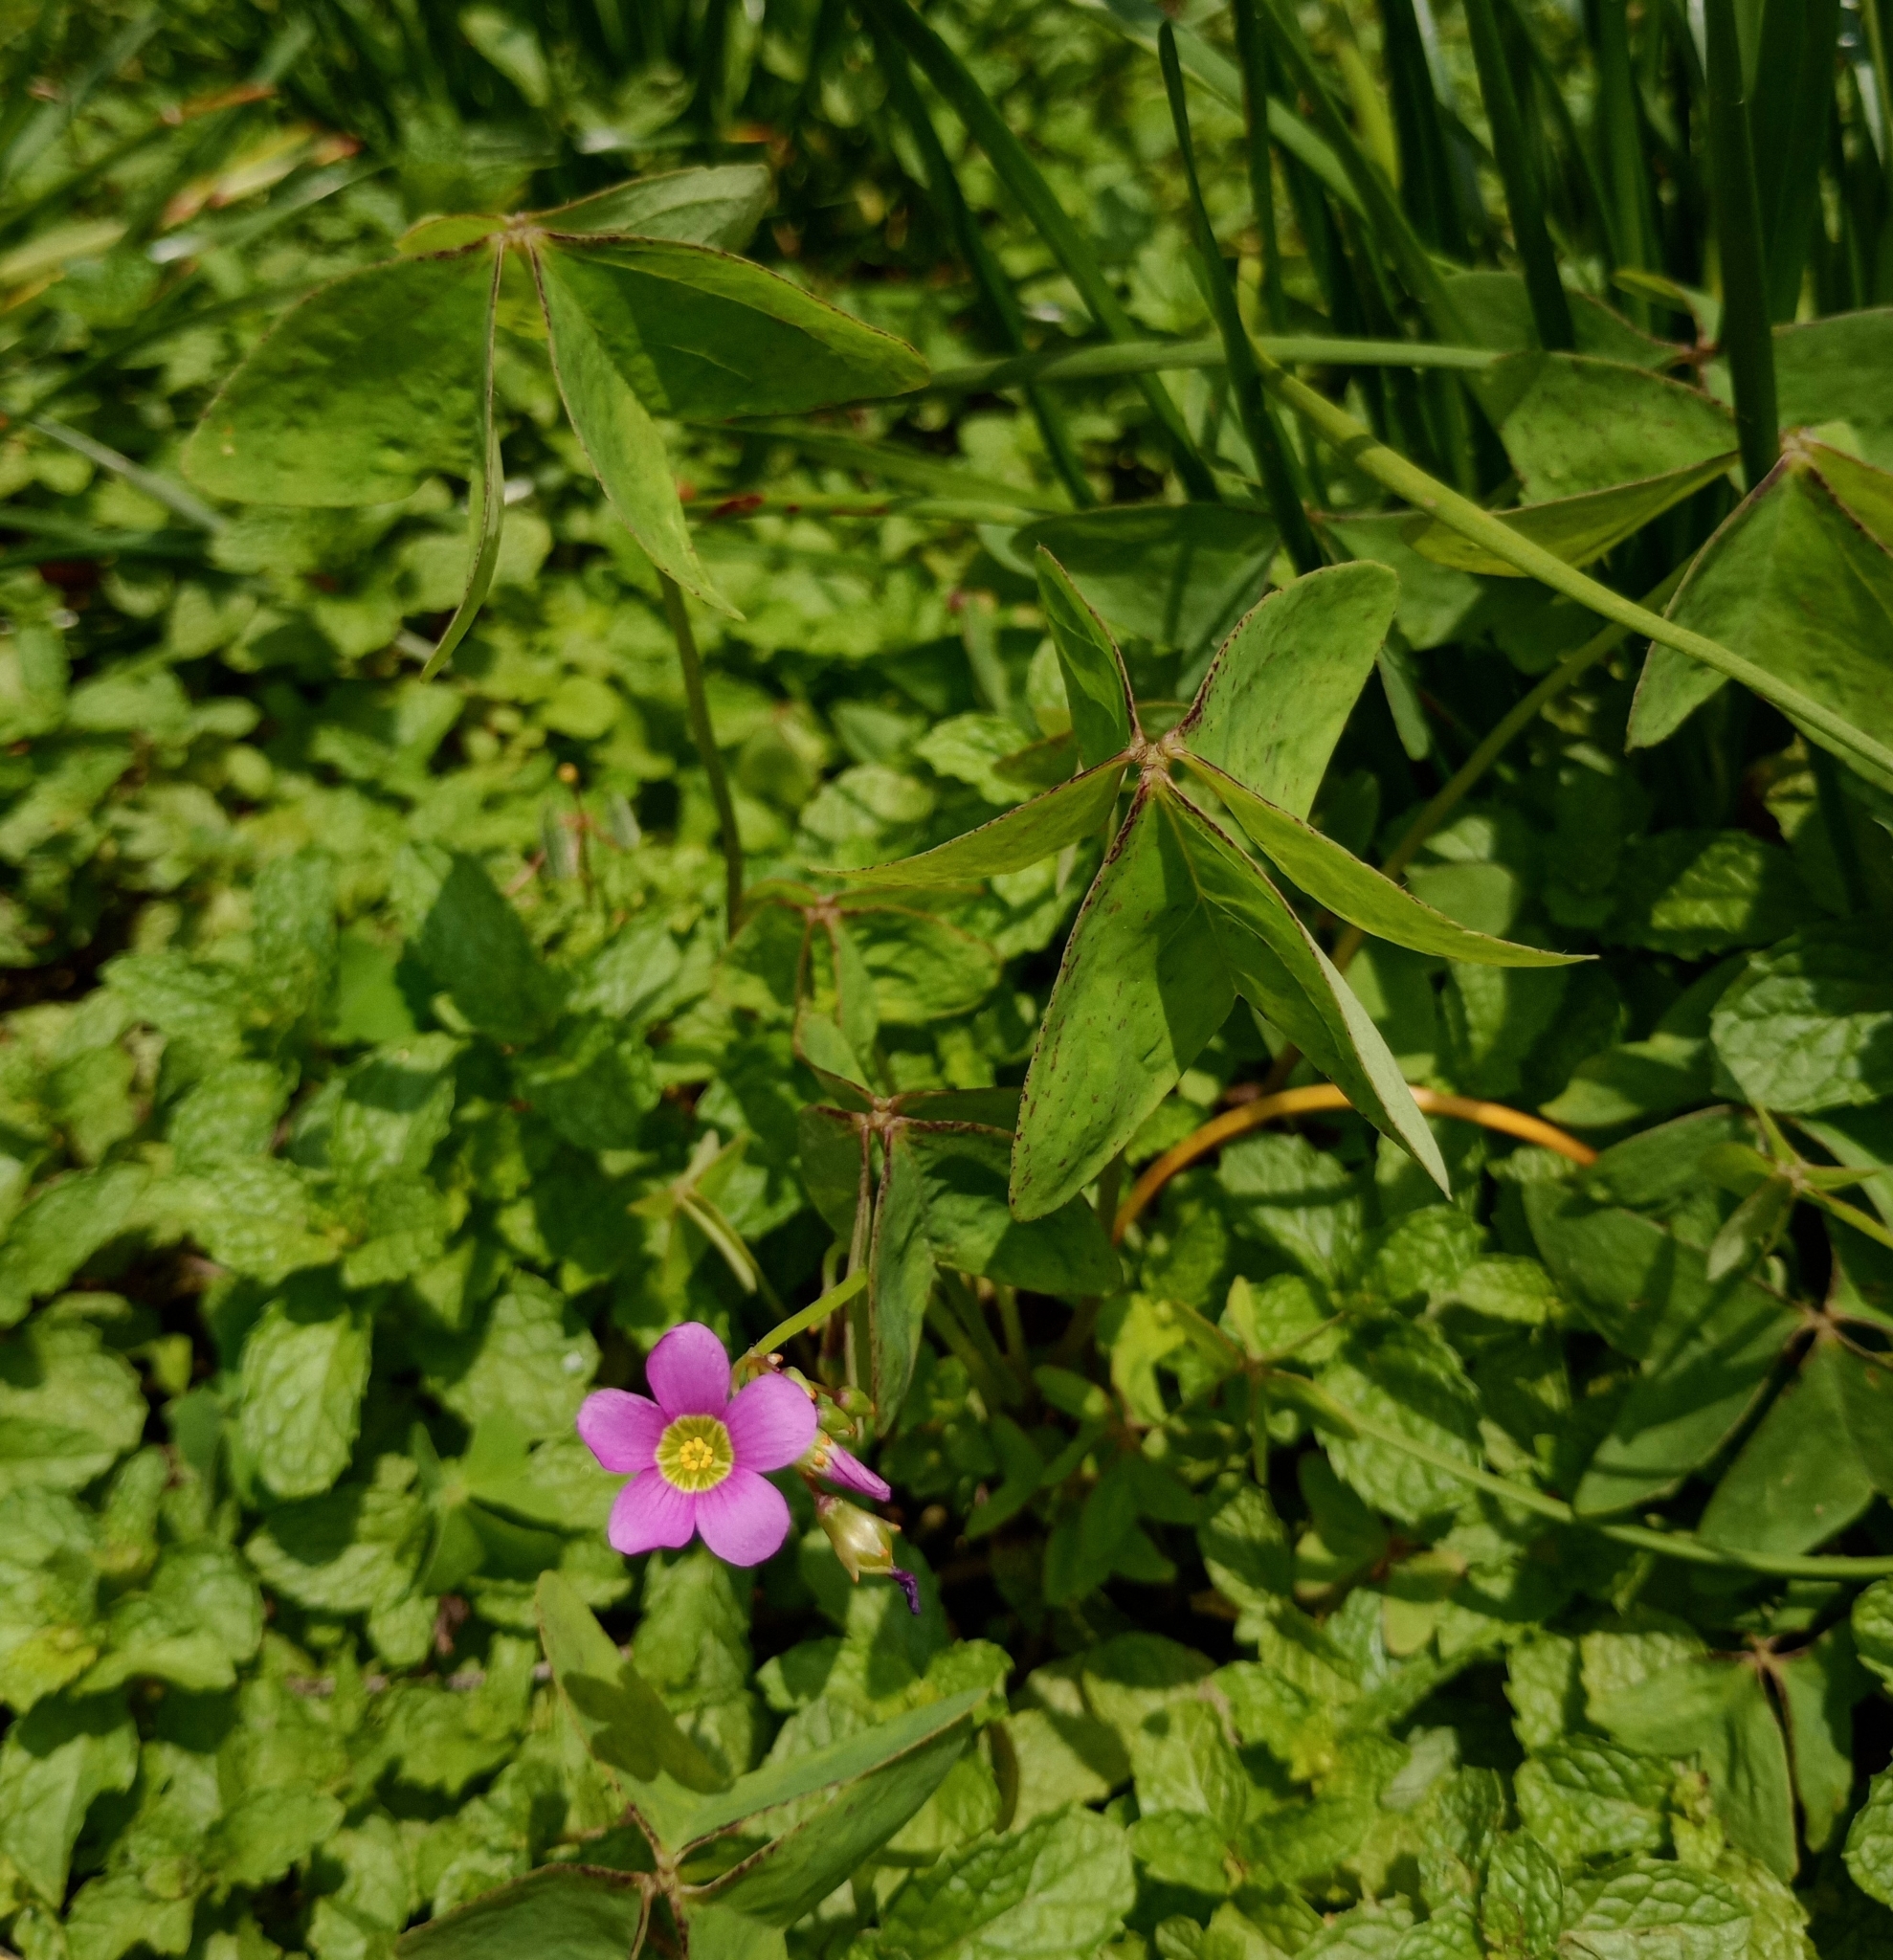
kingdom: Plantae
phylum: Tracheophyta
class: Magnoliopsida
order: Oxalidales
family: Oxalidaceae
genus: Oxalis
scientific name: Oxalis latifolia
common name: Garden pink-sorrel
